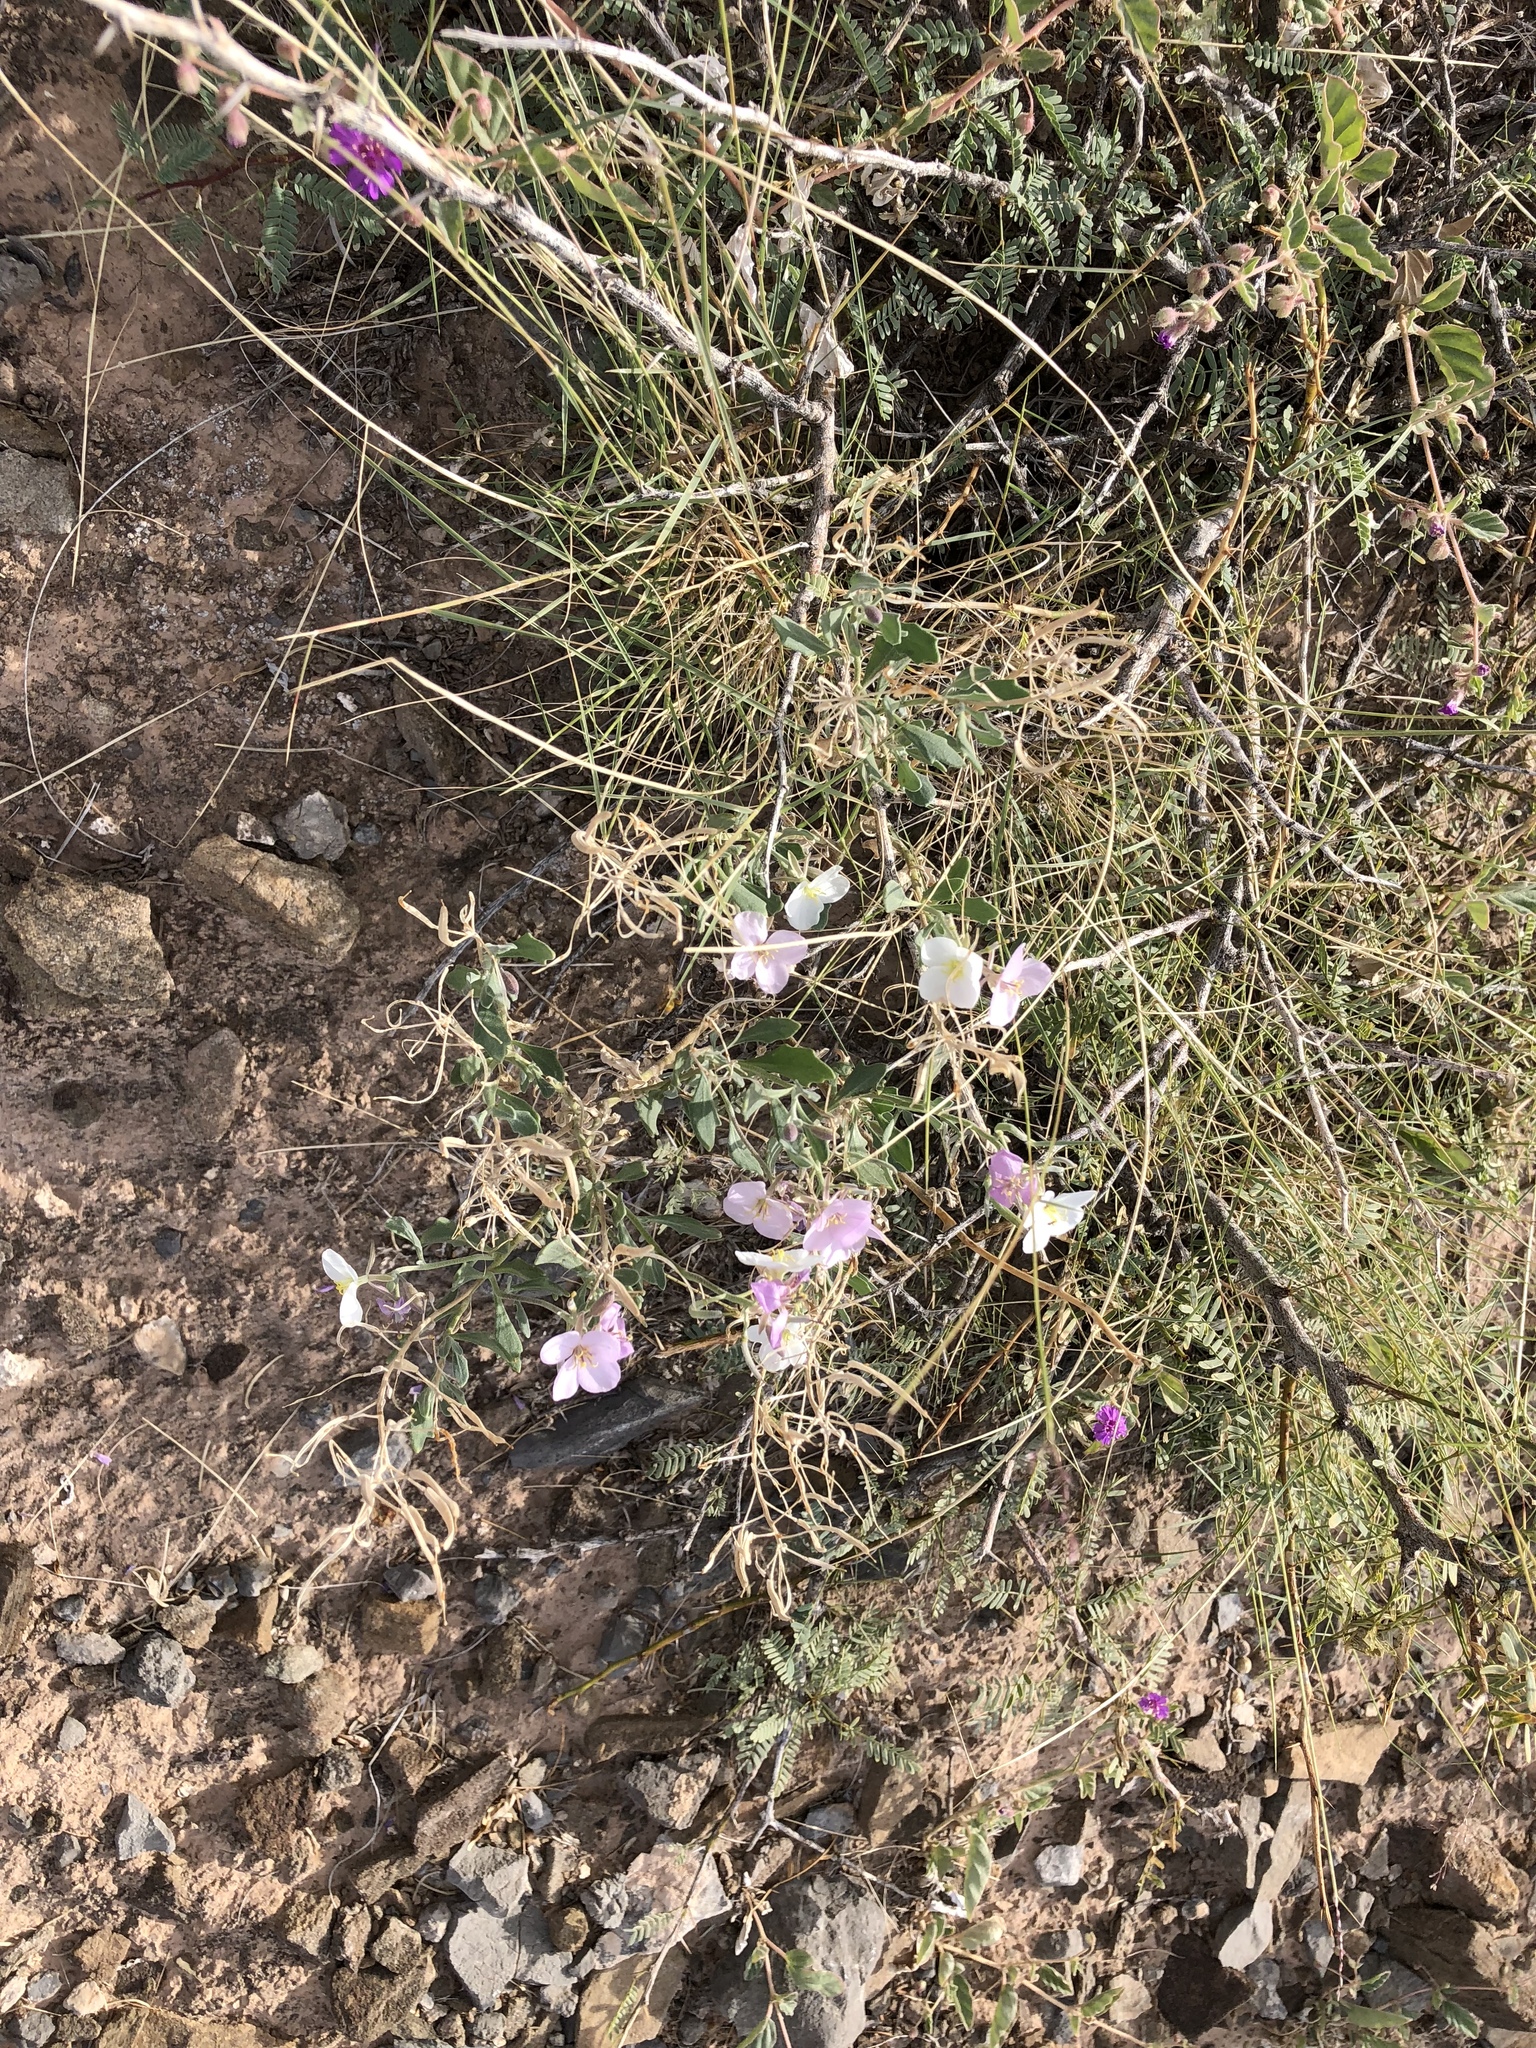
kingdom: Plantae
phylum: Tracheophyta
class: Magnoliopsida
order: Brassicales
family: Brassicaceae
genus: Nerisyrenia
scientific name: Nerisyrenia camporum
